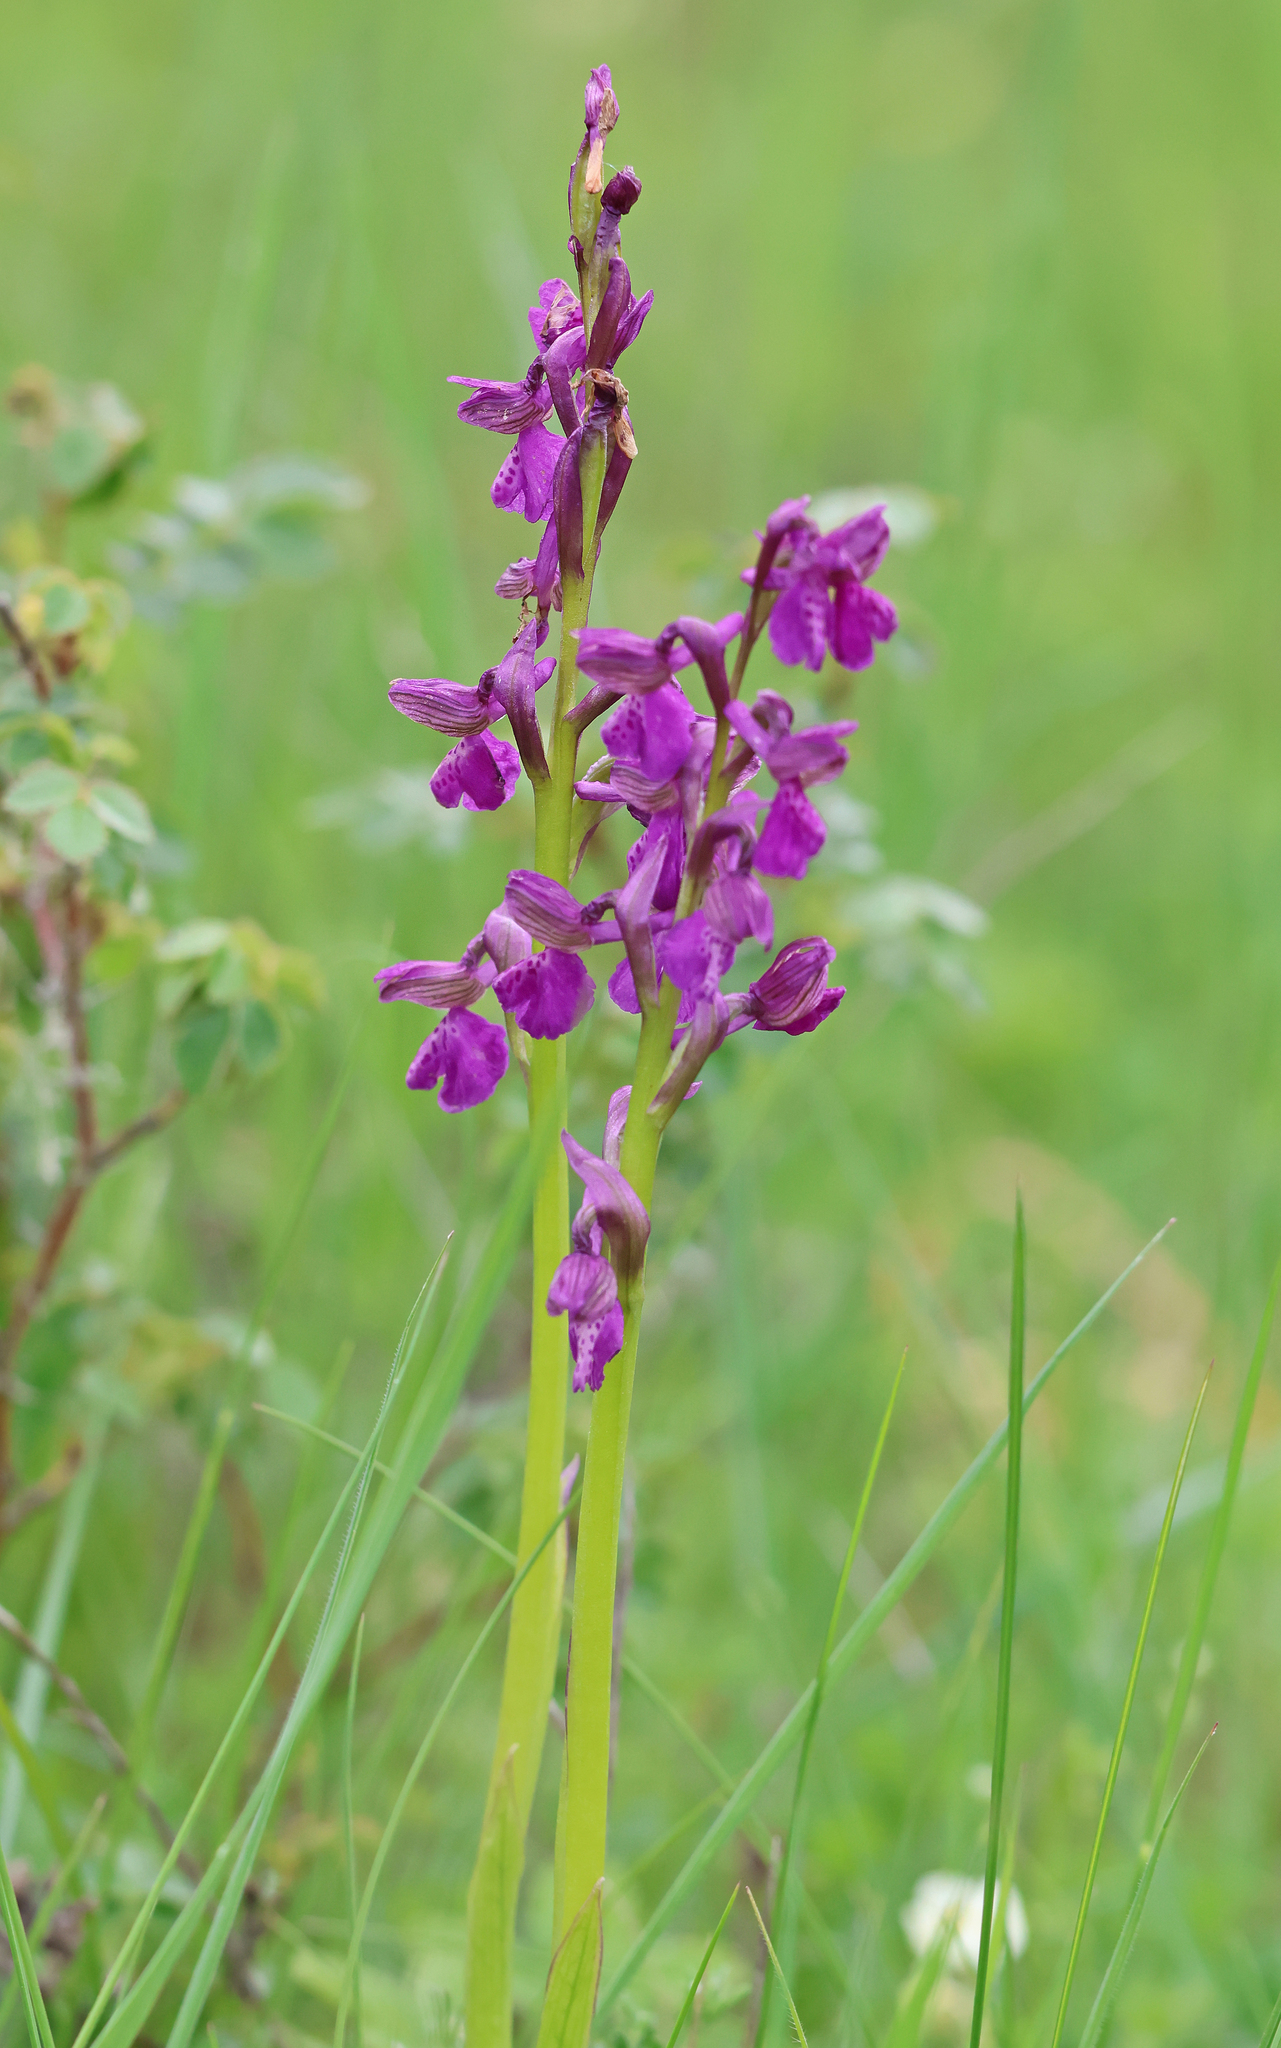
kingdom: Plantae
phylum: Tracheophyta
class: Liliopsida
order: Asparagales
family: Orchidaceae
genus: Anacamptis
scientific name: Anacamptis morio
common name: Green-winged orchid
